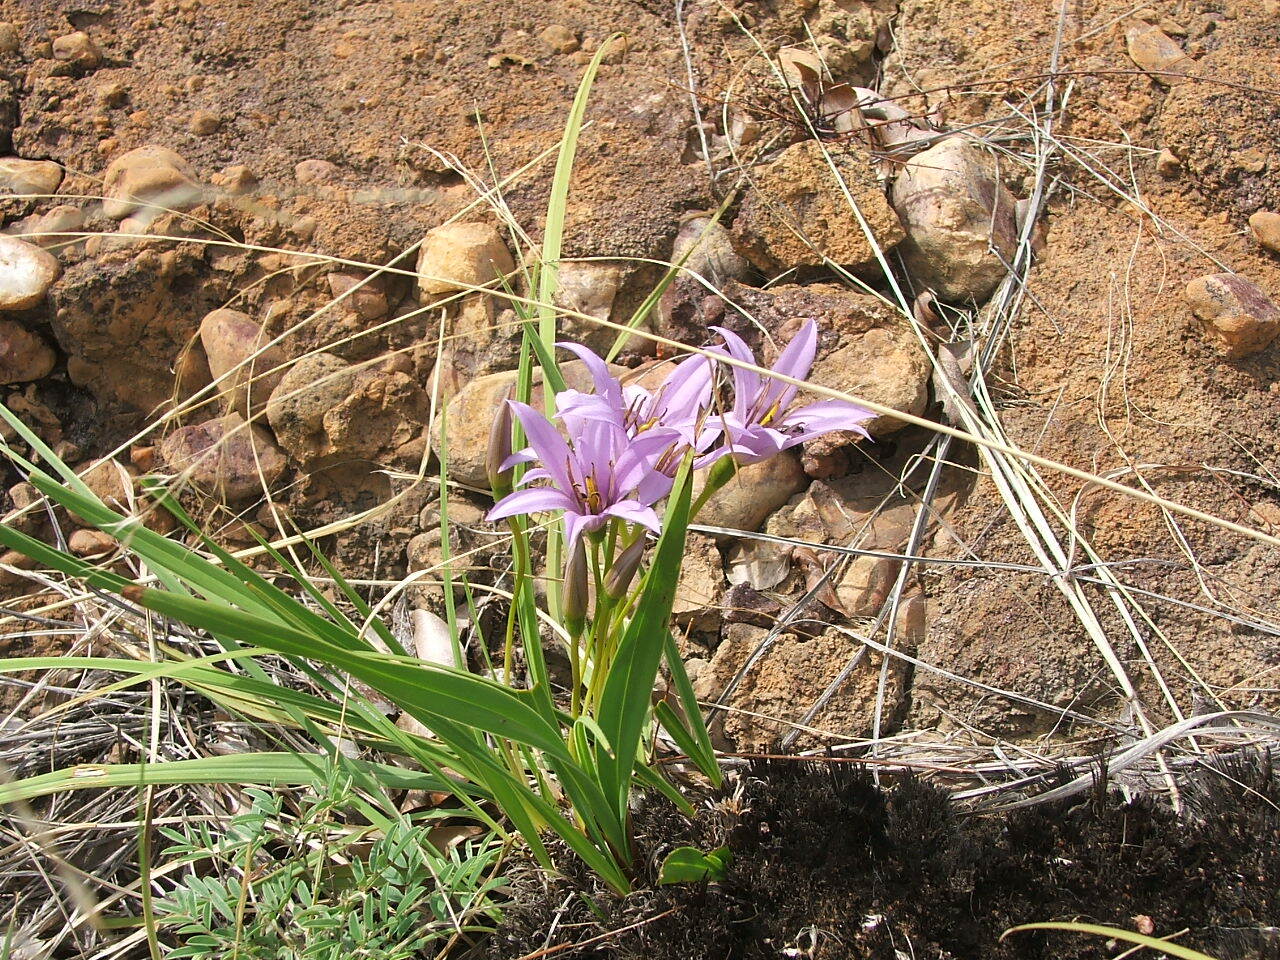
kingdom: Plantae
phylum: Tracheophyta
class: Liliopsida
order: Pandanales
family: Velloziaceae
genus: Xerophyta
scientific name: Xerophyta retinervis
